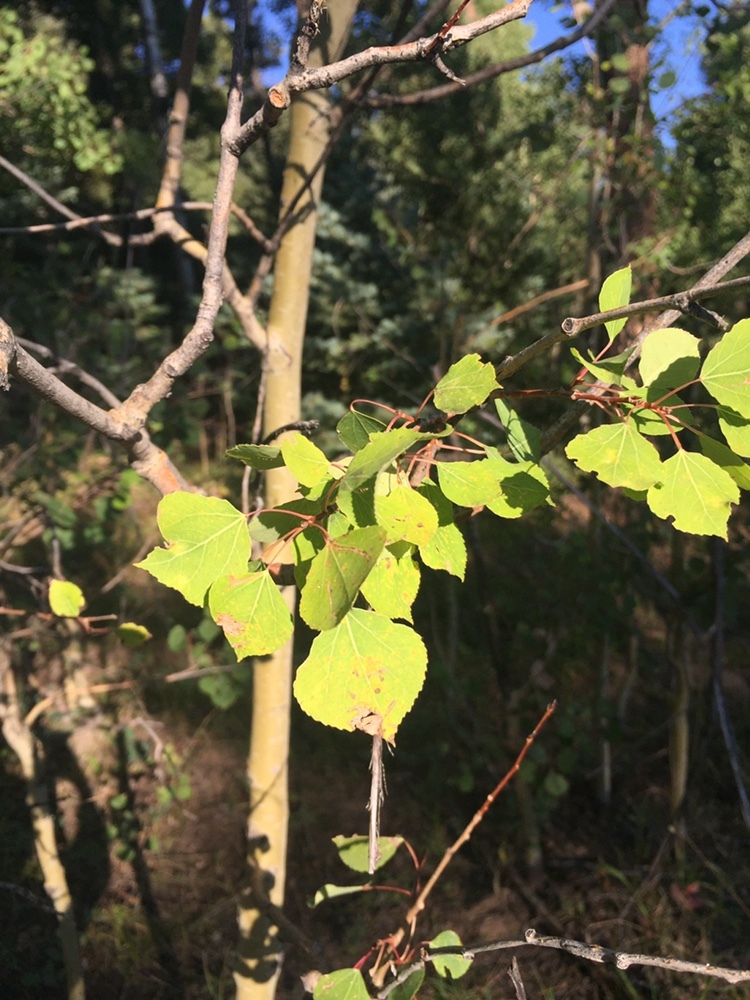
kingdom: Plantae
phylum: Tracheophyta
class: Magnoliopsida
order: Malpighiales
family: Salicaceae
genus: Populus
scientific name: Populus tremuloides
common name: Quaking aspen
